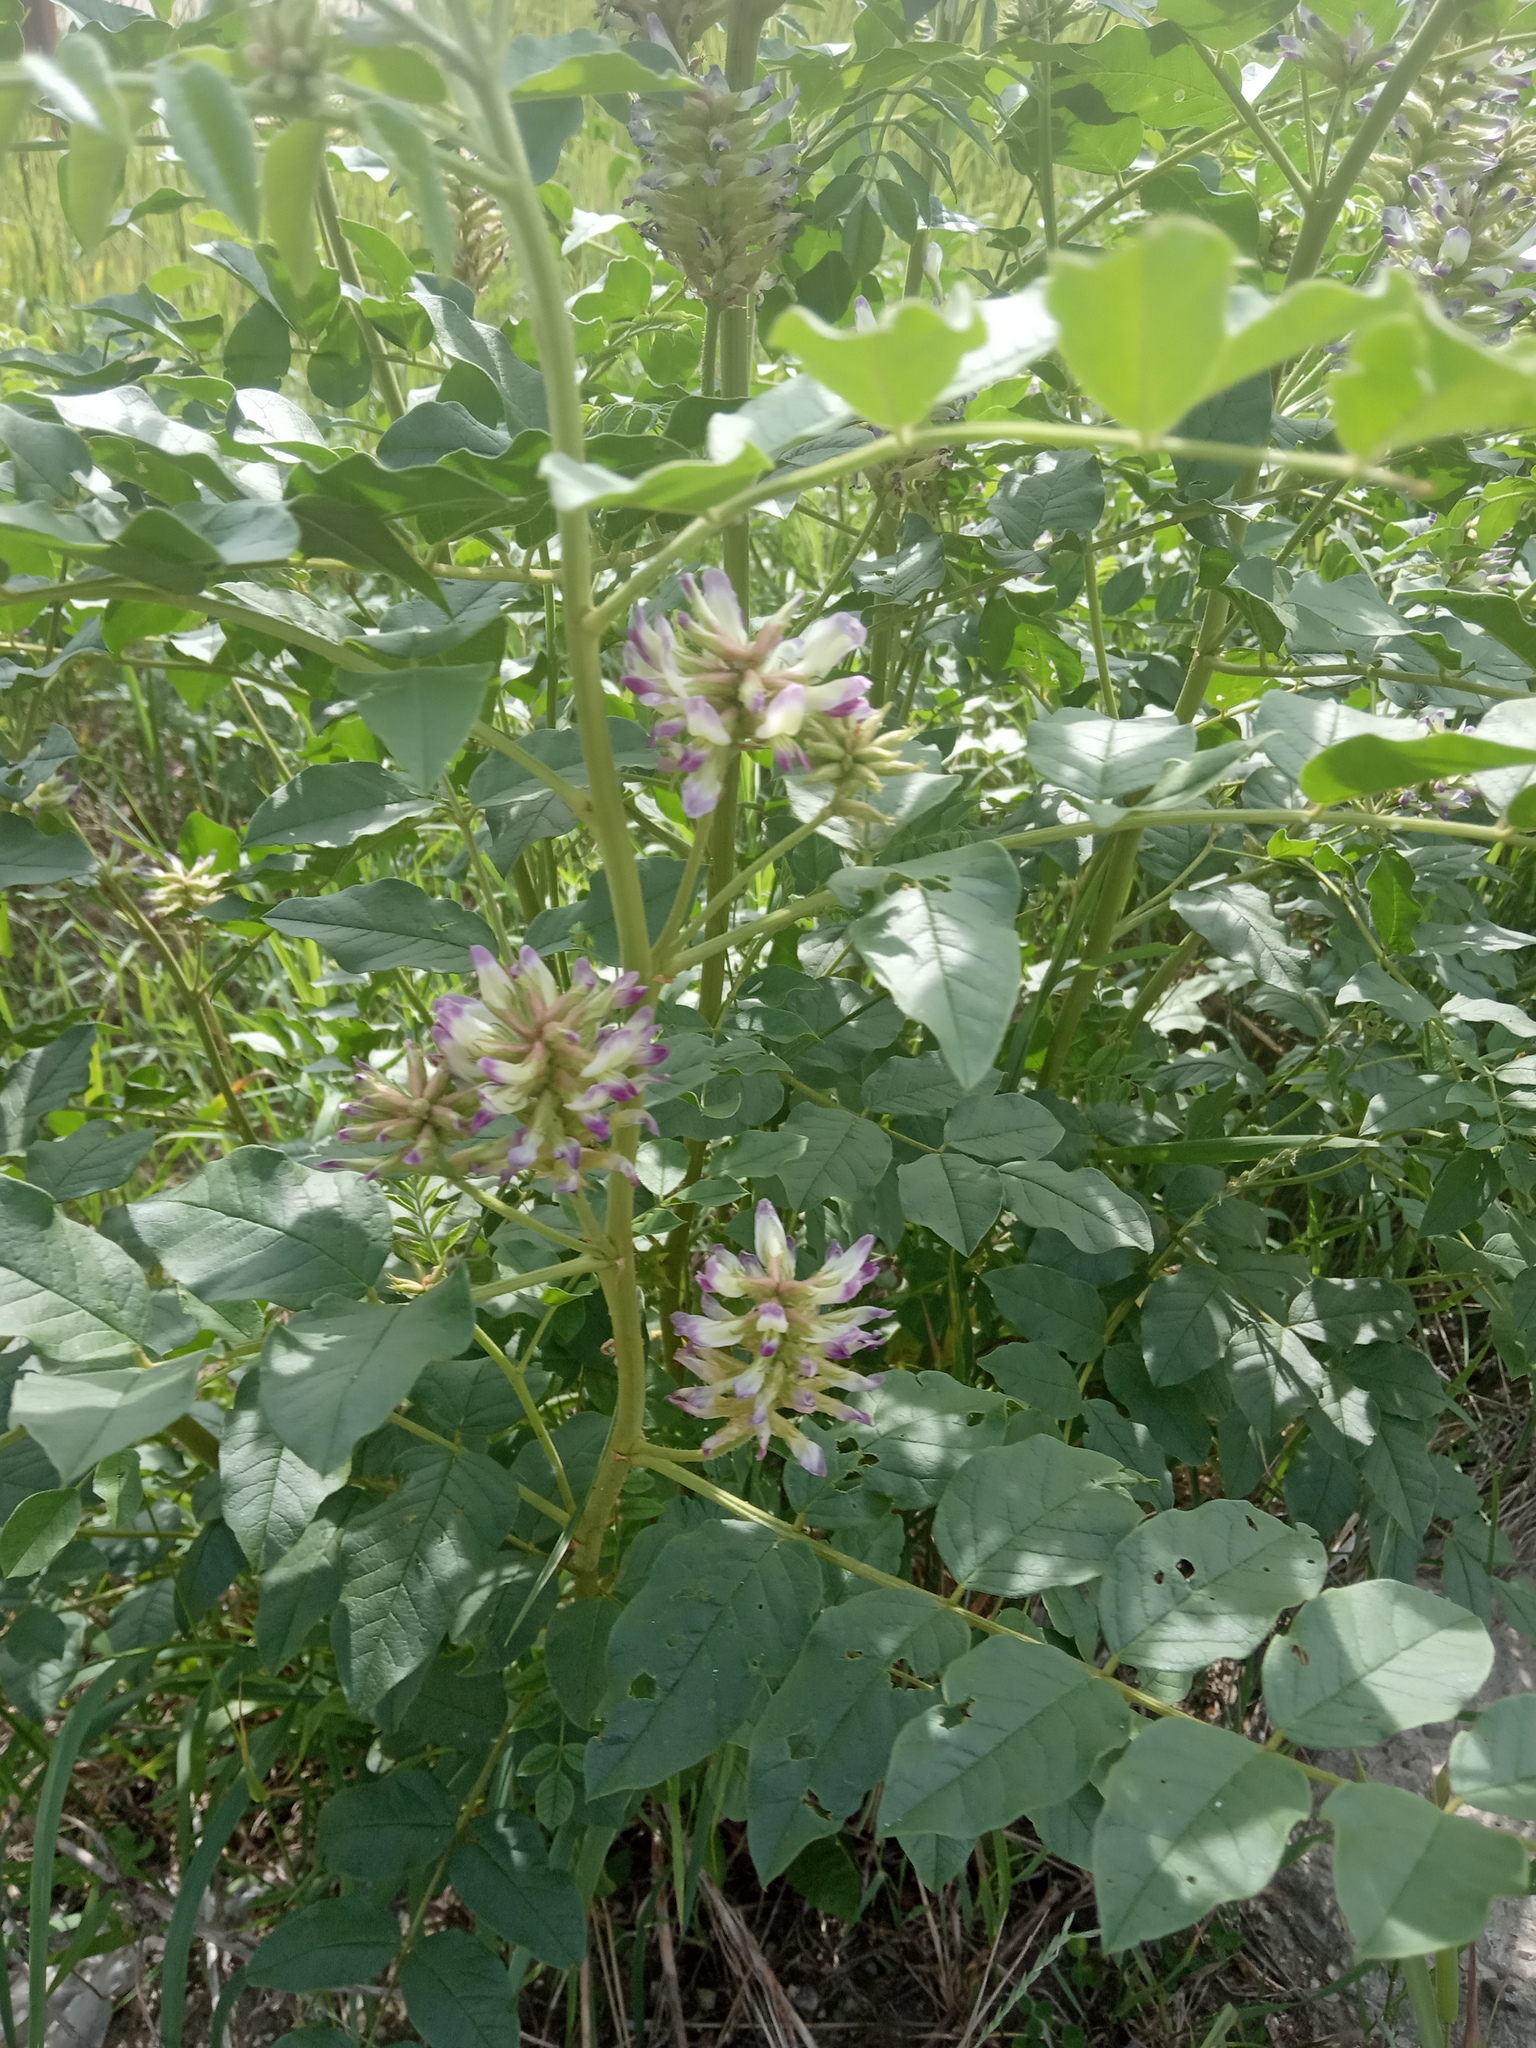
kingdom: Plantae
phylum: Tracheophyta
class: Magnoliopsida
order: Fabales
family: Fabaceae
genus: Glycyrrhiza
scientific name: Glycyrrhiza uralensis
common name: Chinese licorice
